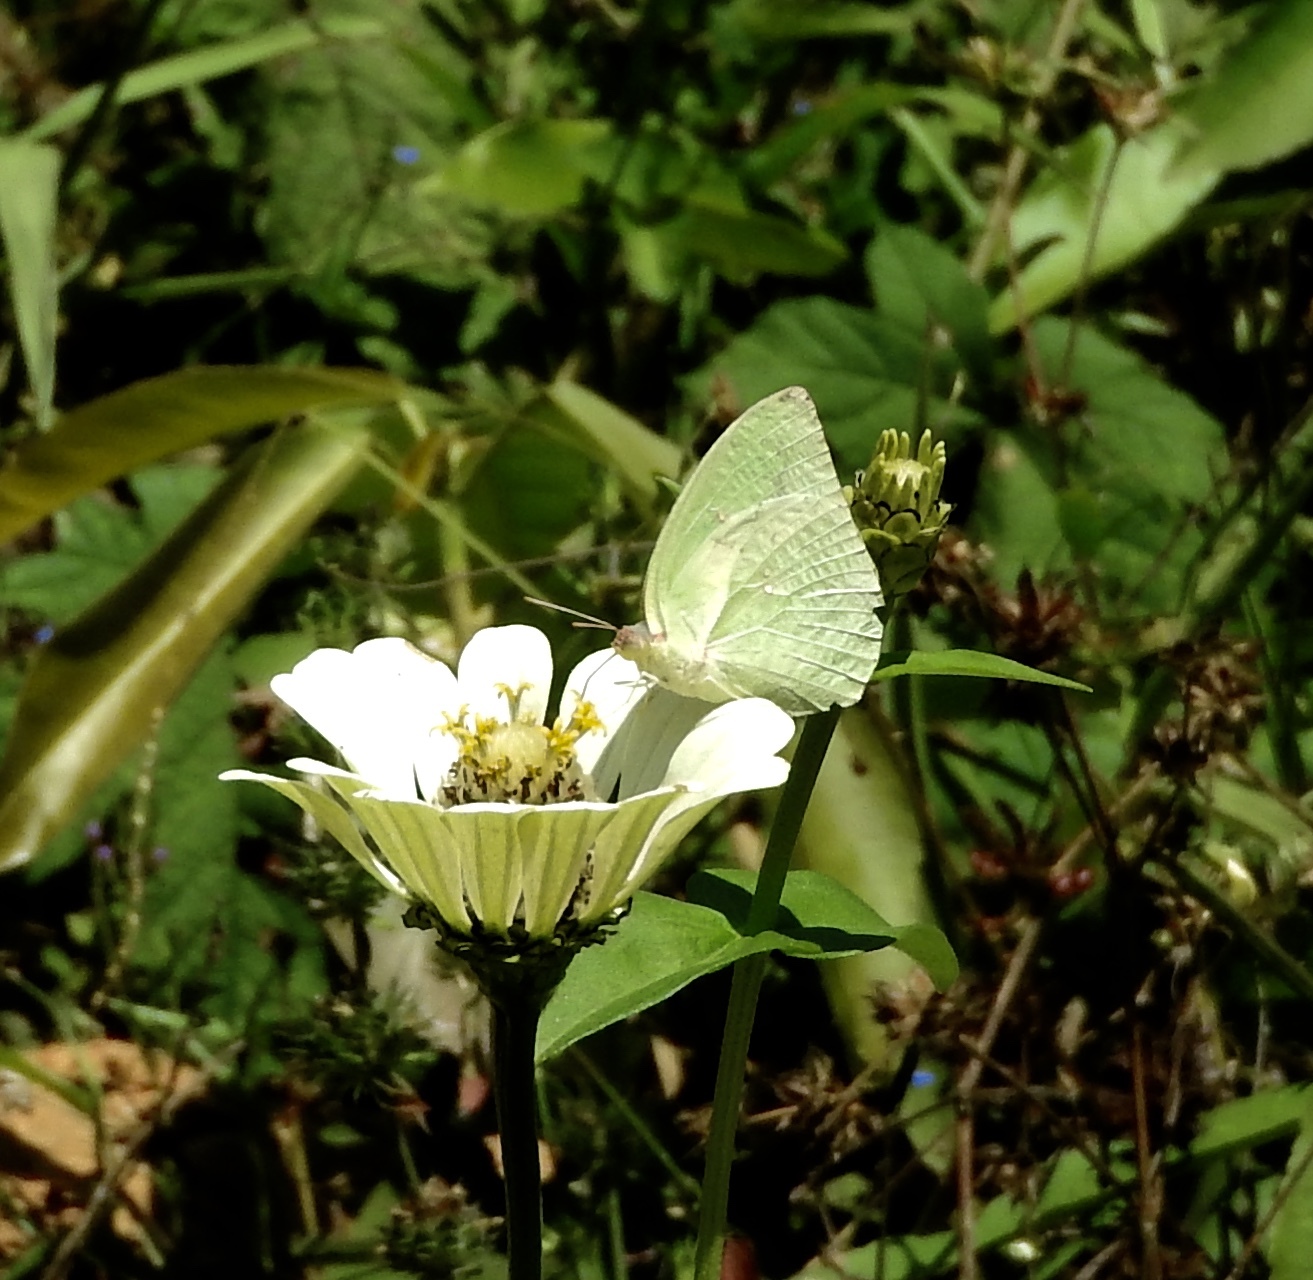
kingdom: Animalia
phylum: Arthropoda
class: Insecta
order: Lepidoptera
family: Pieridae
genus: Catopsilia
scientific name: Catopsilia pomona
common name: Common emigrant
